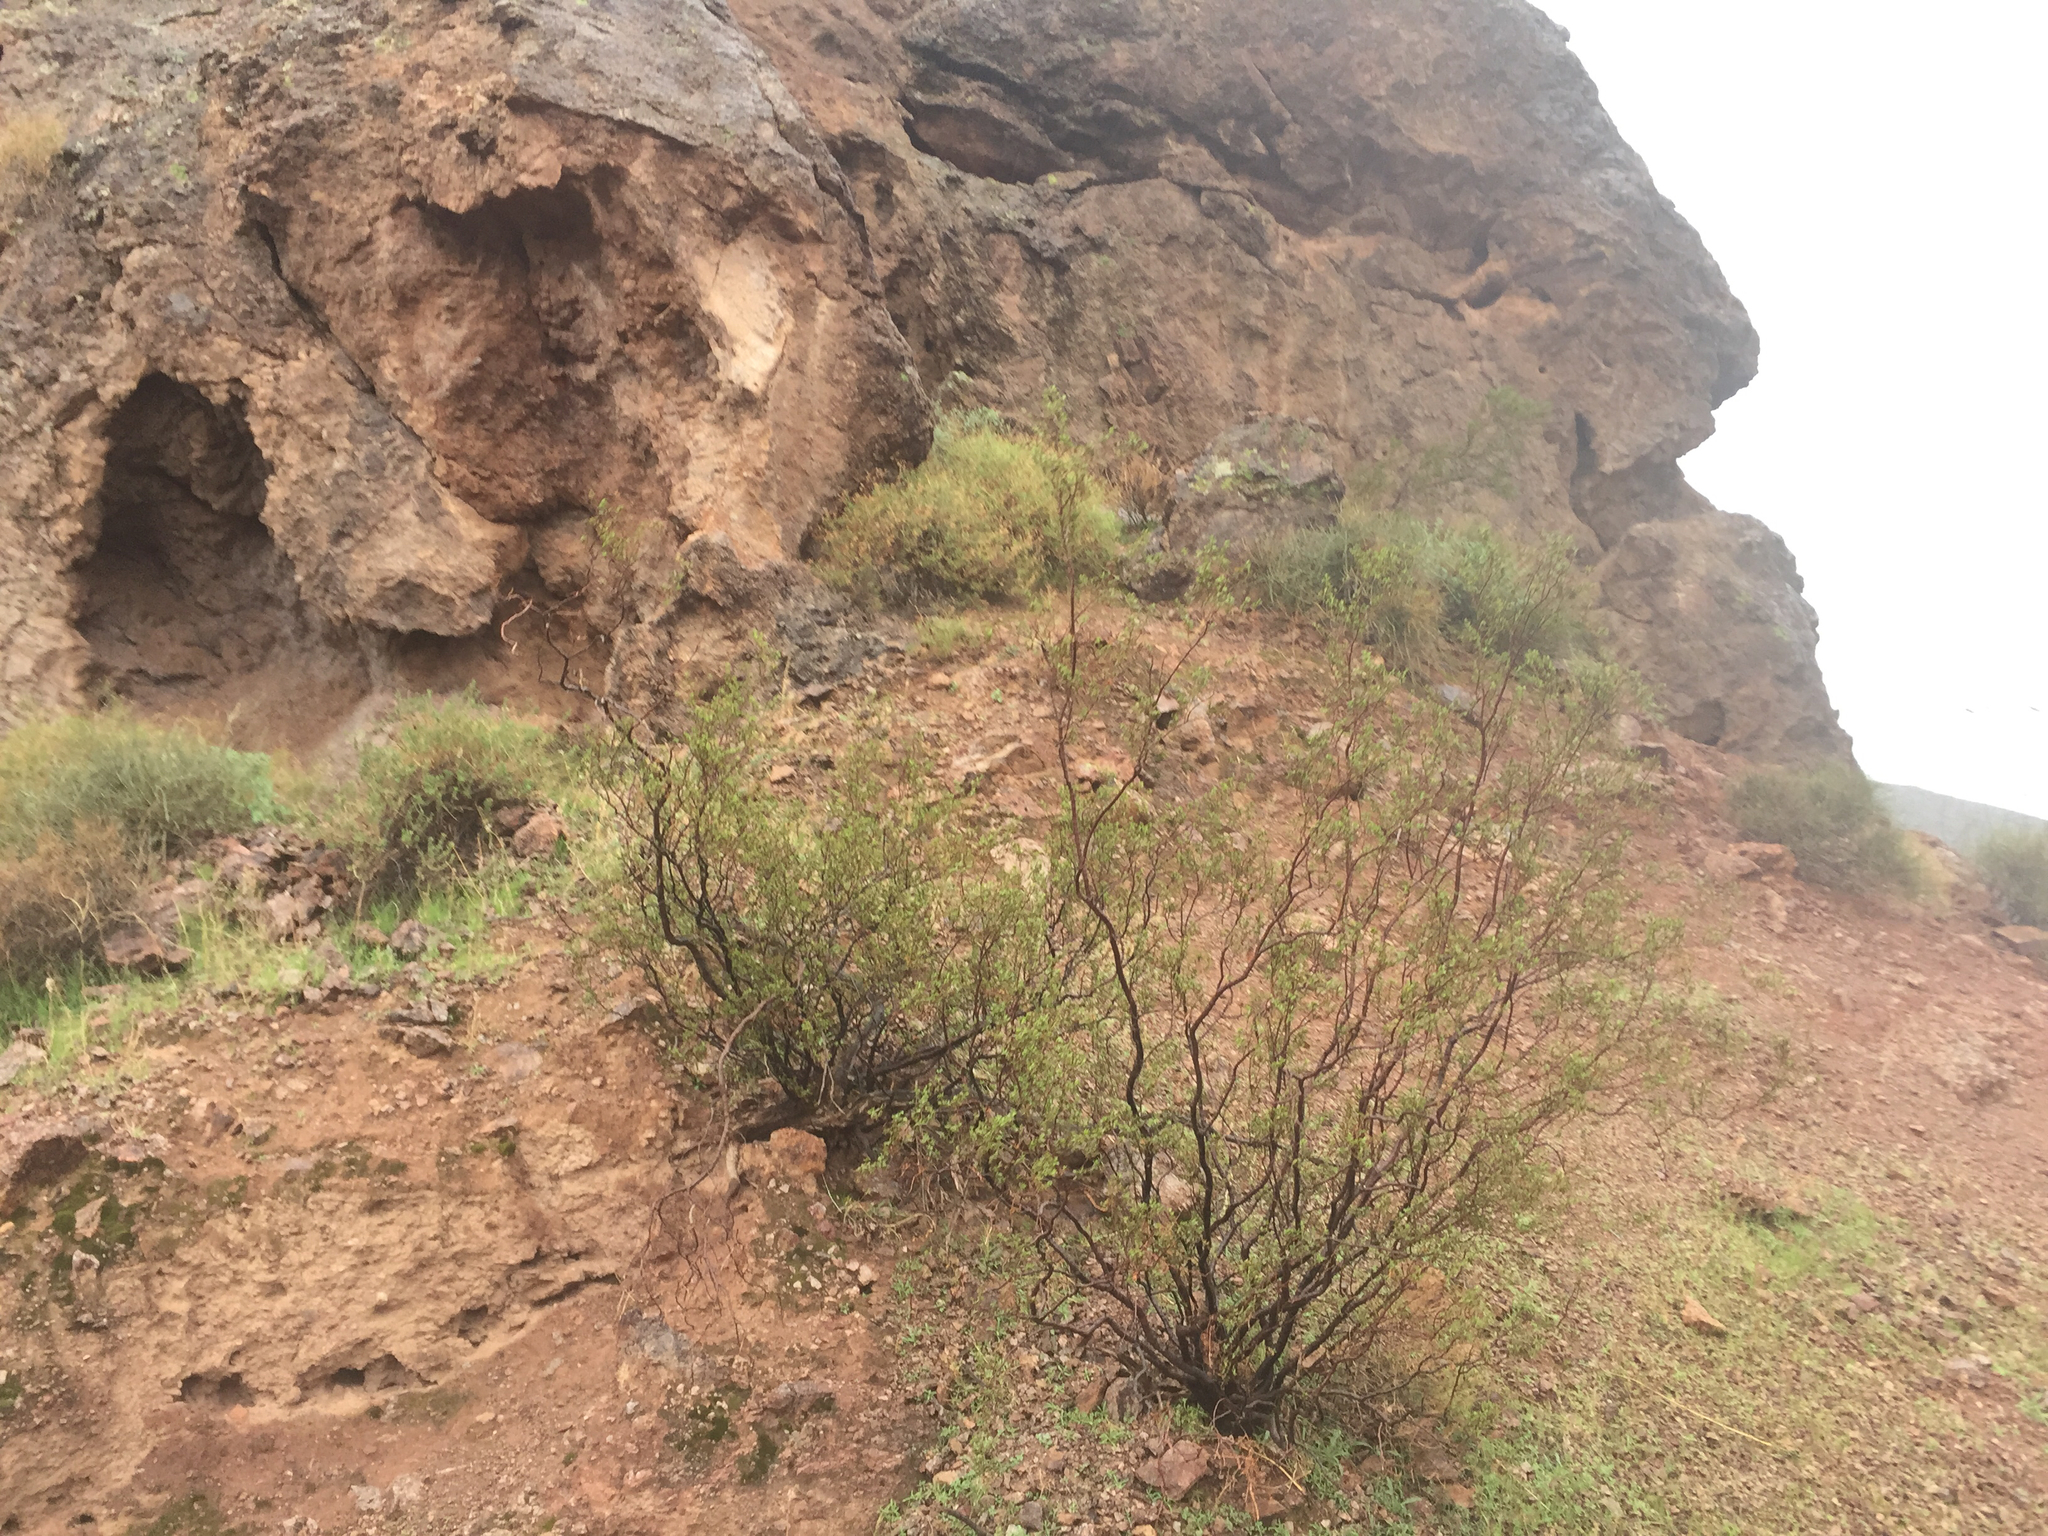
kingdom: Plantae
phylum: Tracheophyta
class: Magnoliopsida
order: Zygophyllales
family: Zygophyllaceae
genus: Larrea
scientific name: Larrea tridentata
